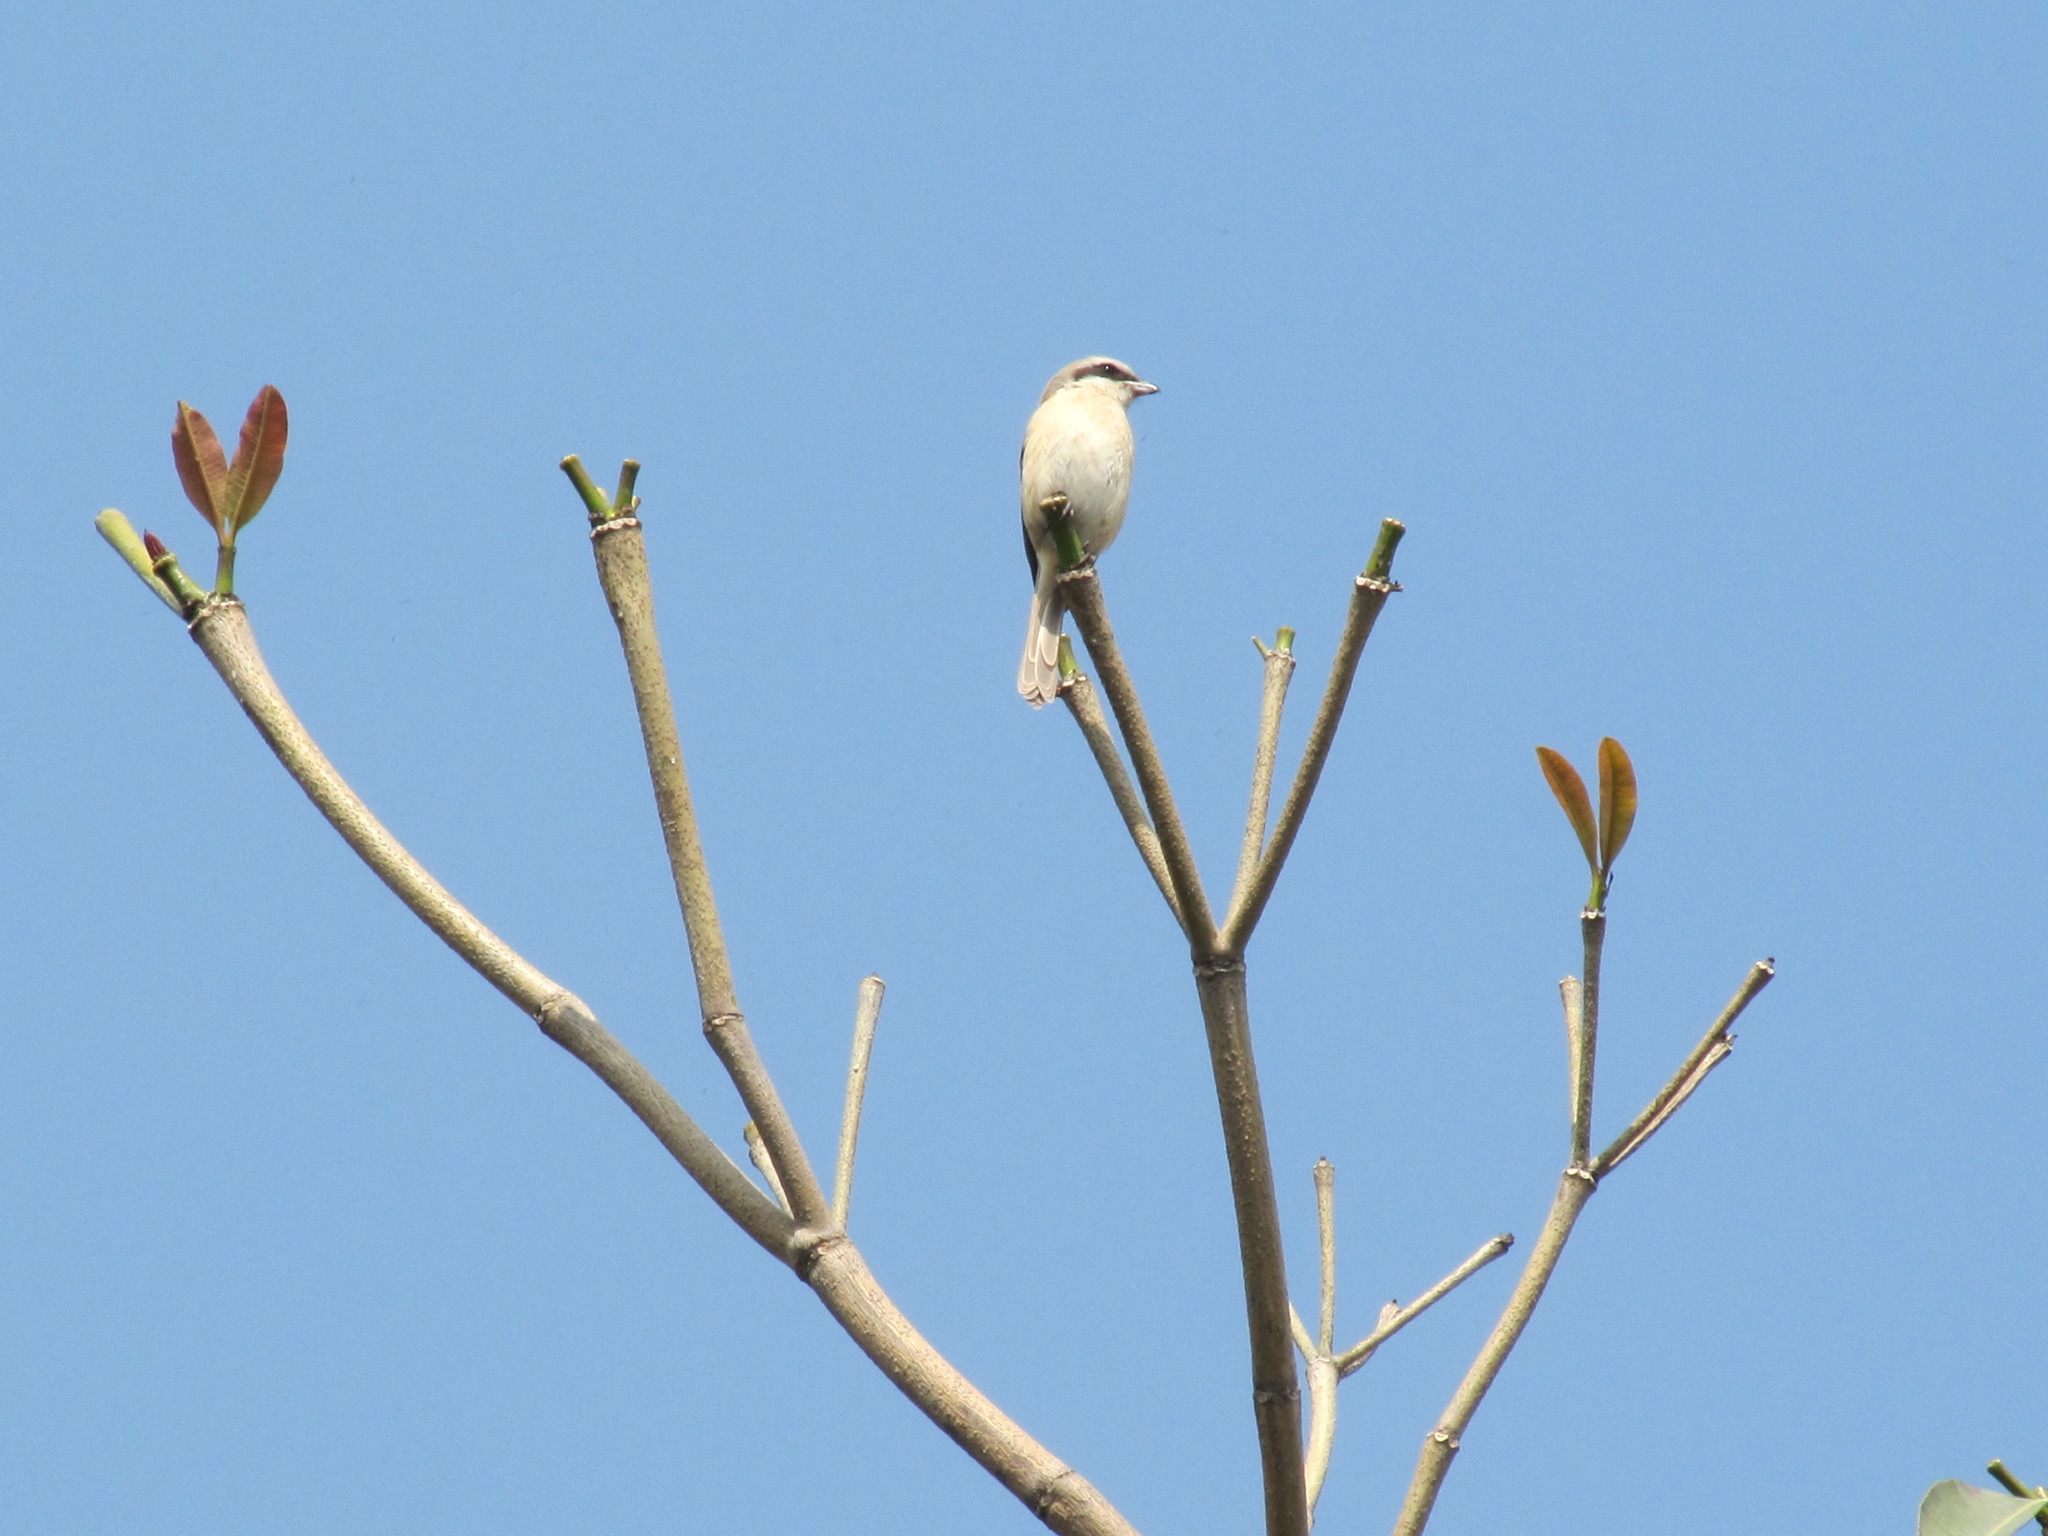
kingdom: Animalia
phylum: Chordata
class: Aves
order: Passeriformes
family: Laniidae
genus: Lanius
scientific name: Lanius cristatus
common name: Brown shrike
